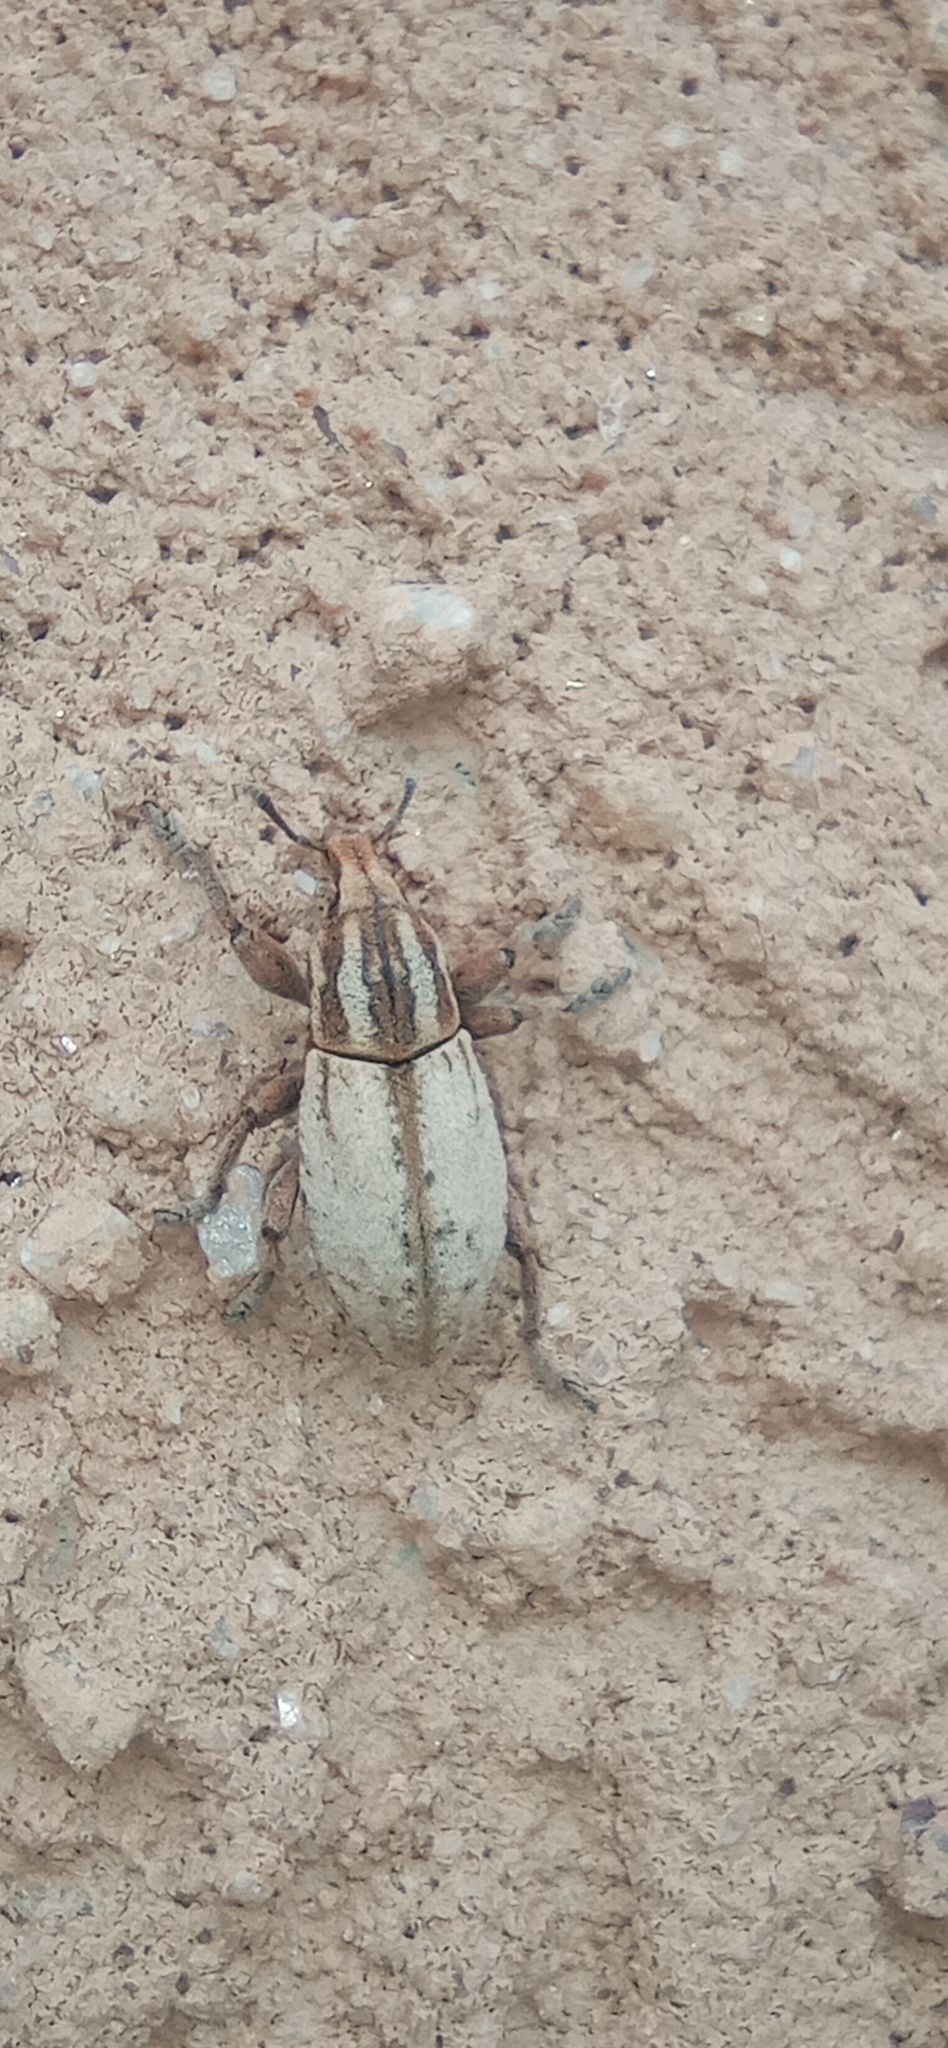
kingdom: Animalia
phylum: Arthropoda
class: Insecta
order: Coleoptera
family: Curculionidae
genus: Pseudocleonus
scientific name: Pseudocleonus cinereus
